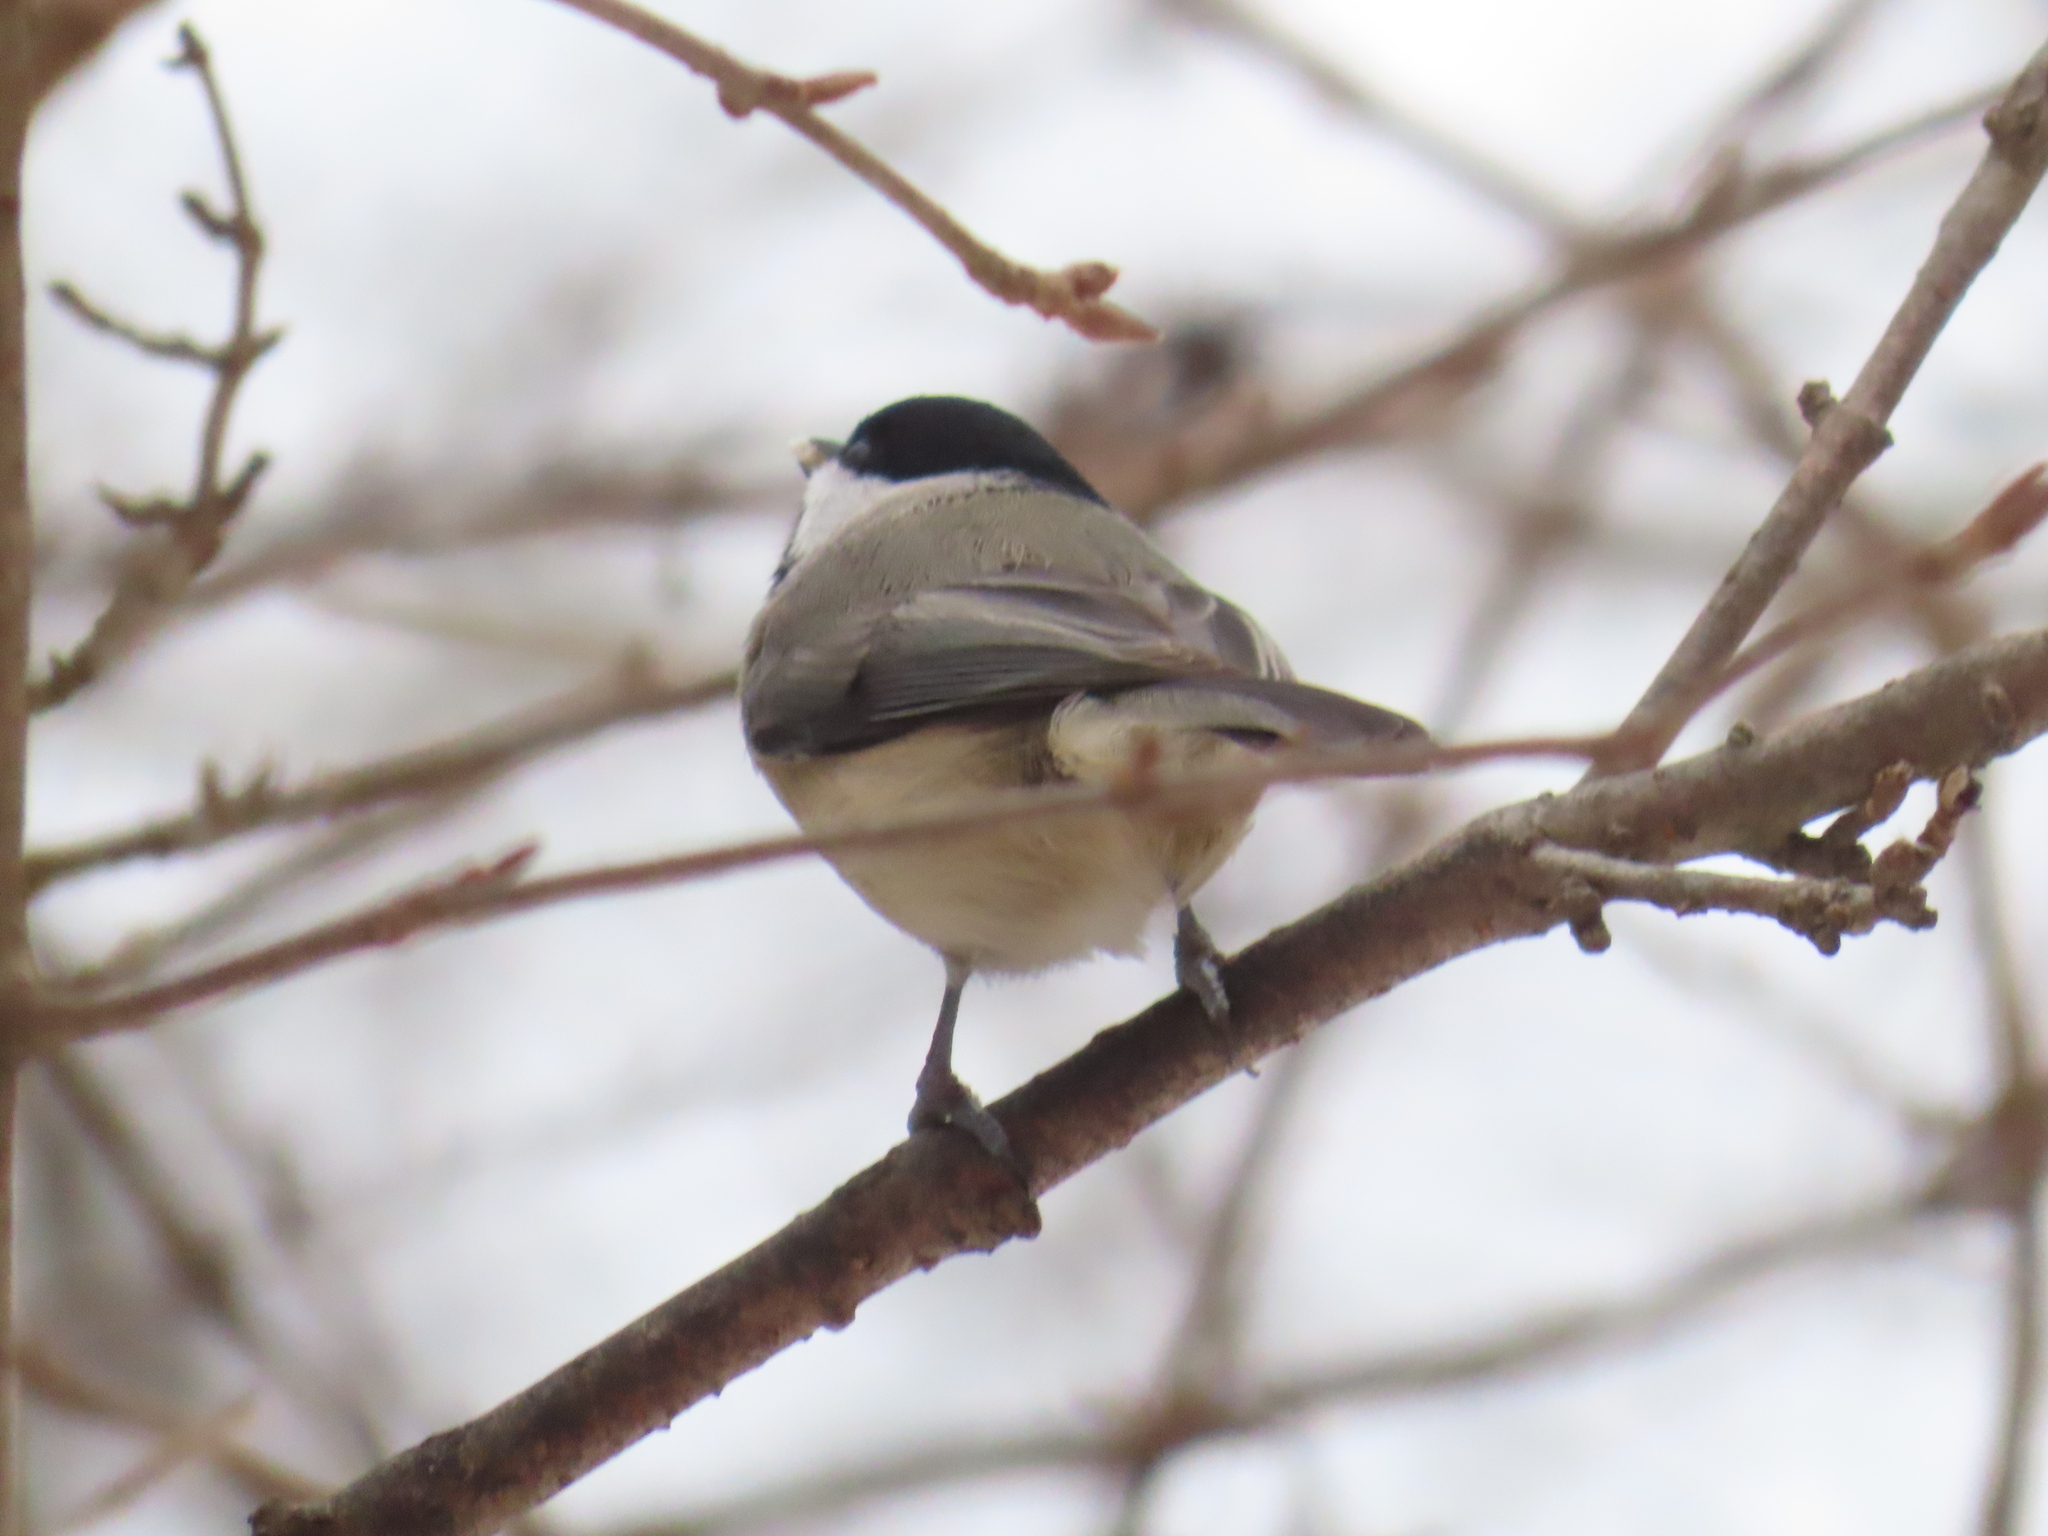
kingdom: Animalia
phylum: Chordata
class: Aves
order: Passeriformes
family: Paridae
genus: Poecile
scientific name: Poecile carolinensis
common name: Carolina chickadee
